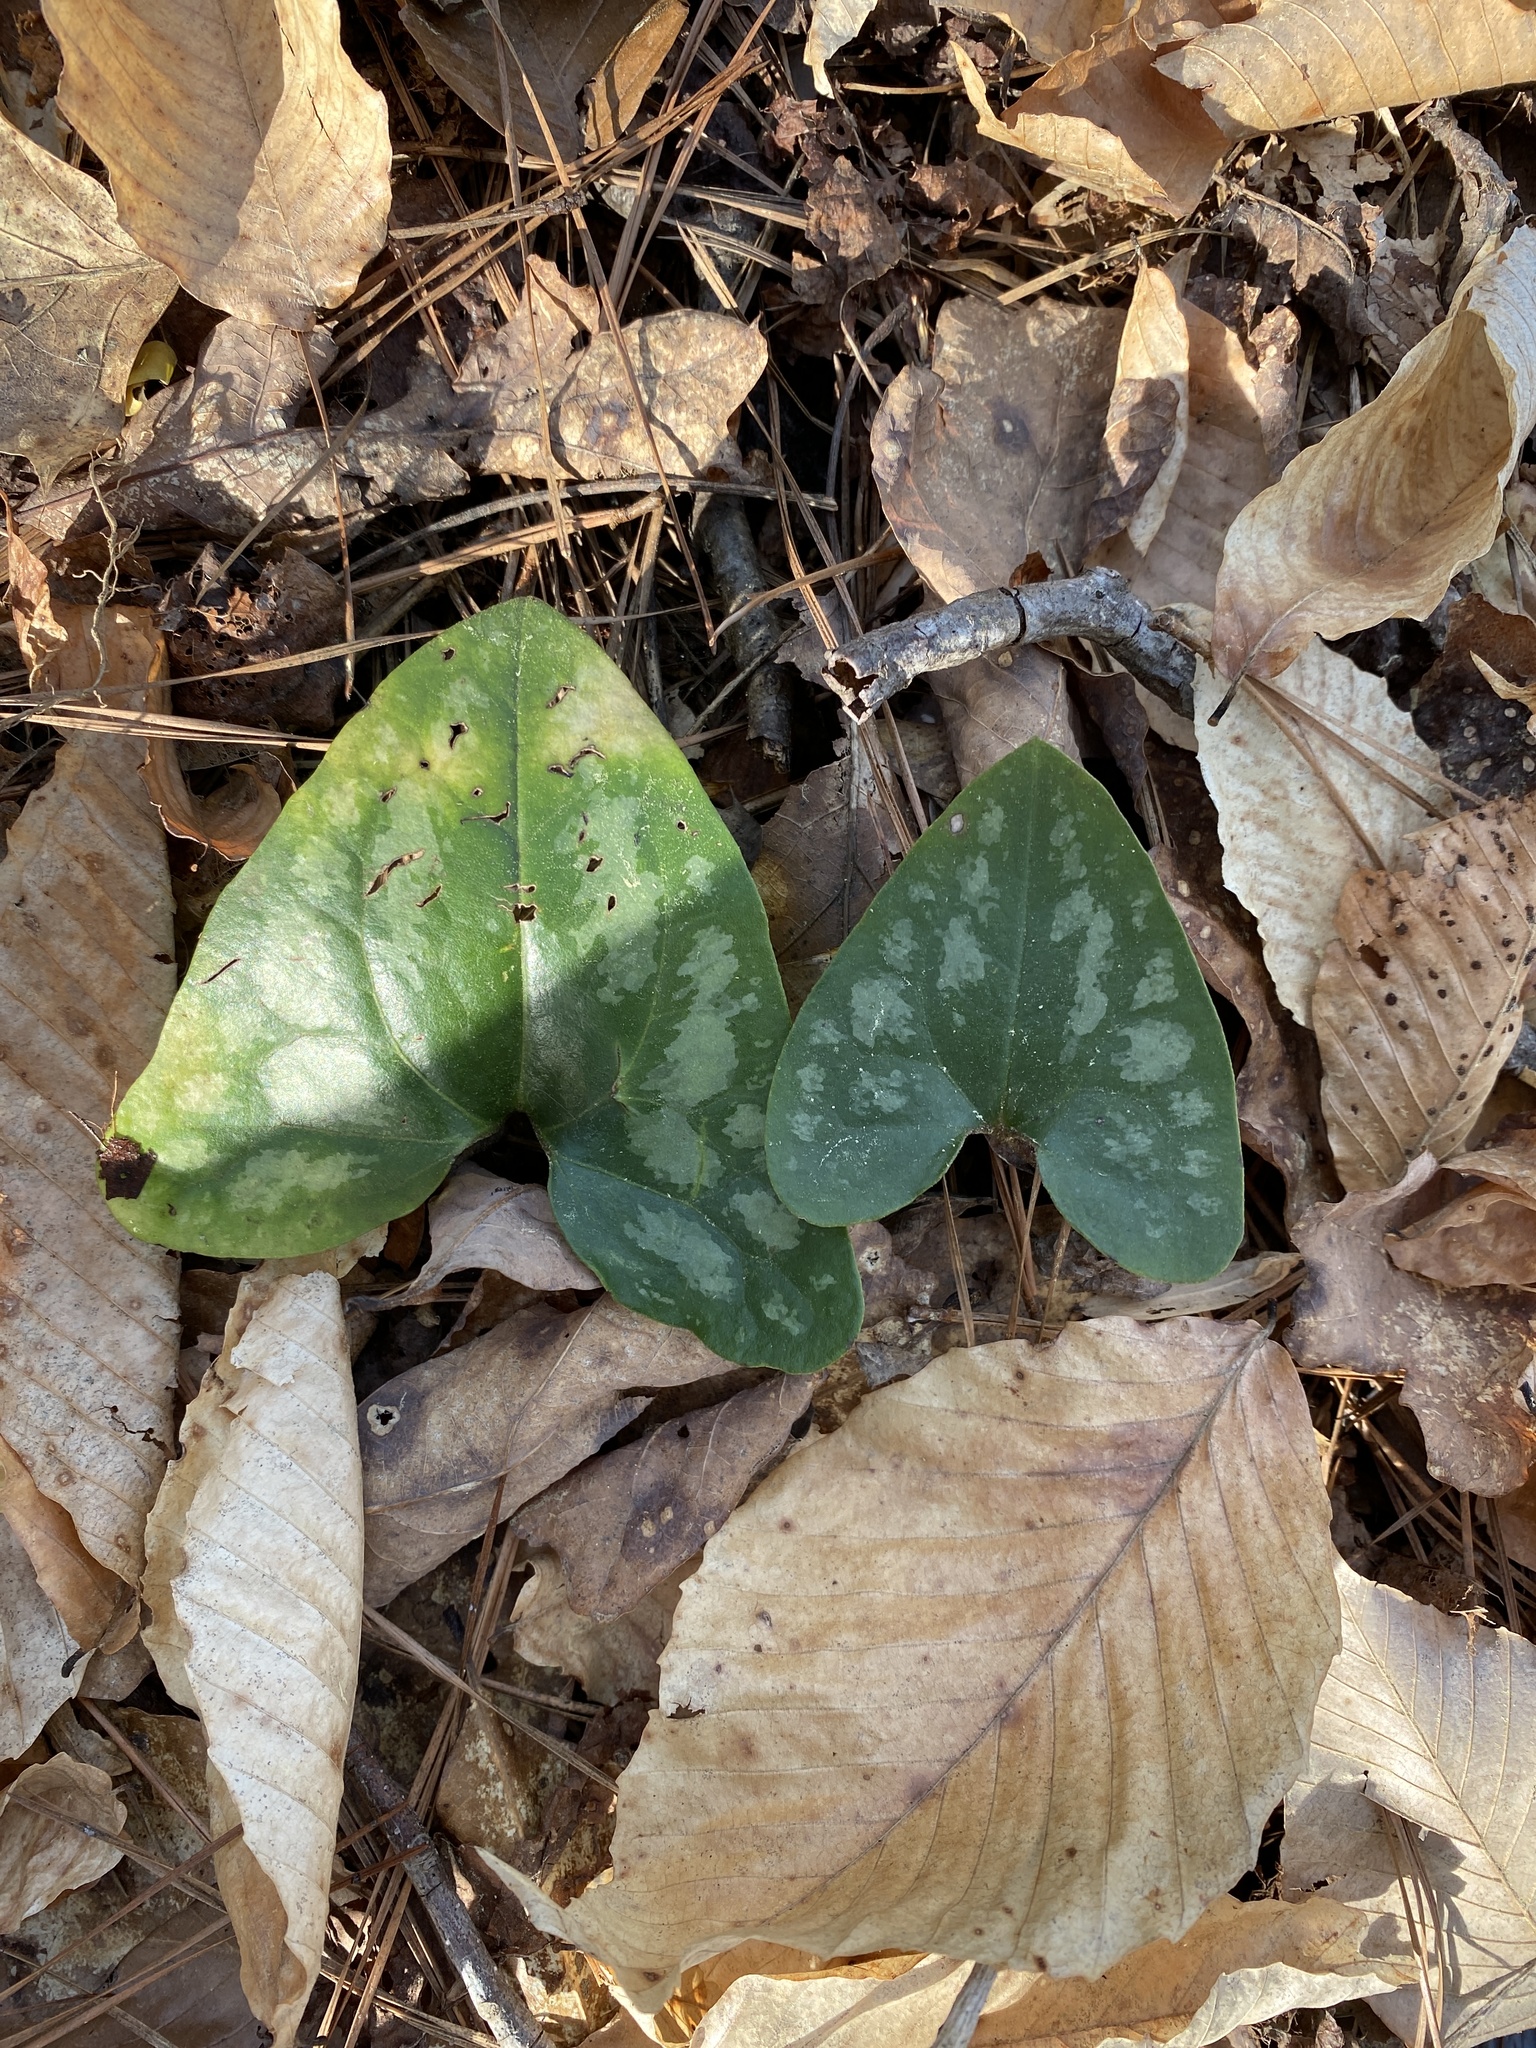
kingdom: Plantae
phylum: Tracheophyta
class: Magnoliopsida
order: Piperales
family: Aristolochiaceae
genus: Hexastylis
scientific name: Hexastylis arifolia
